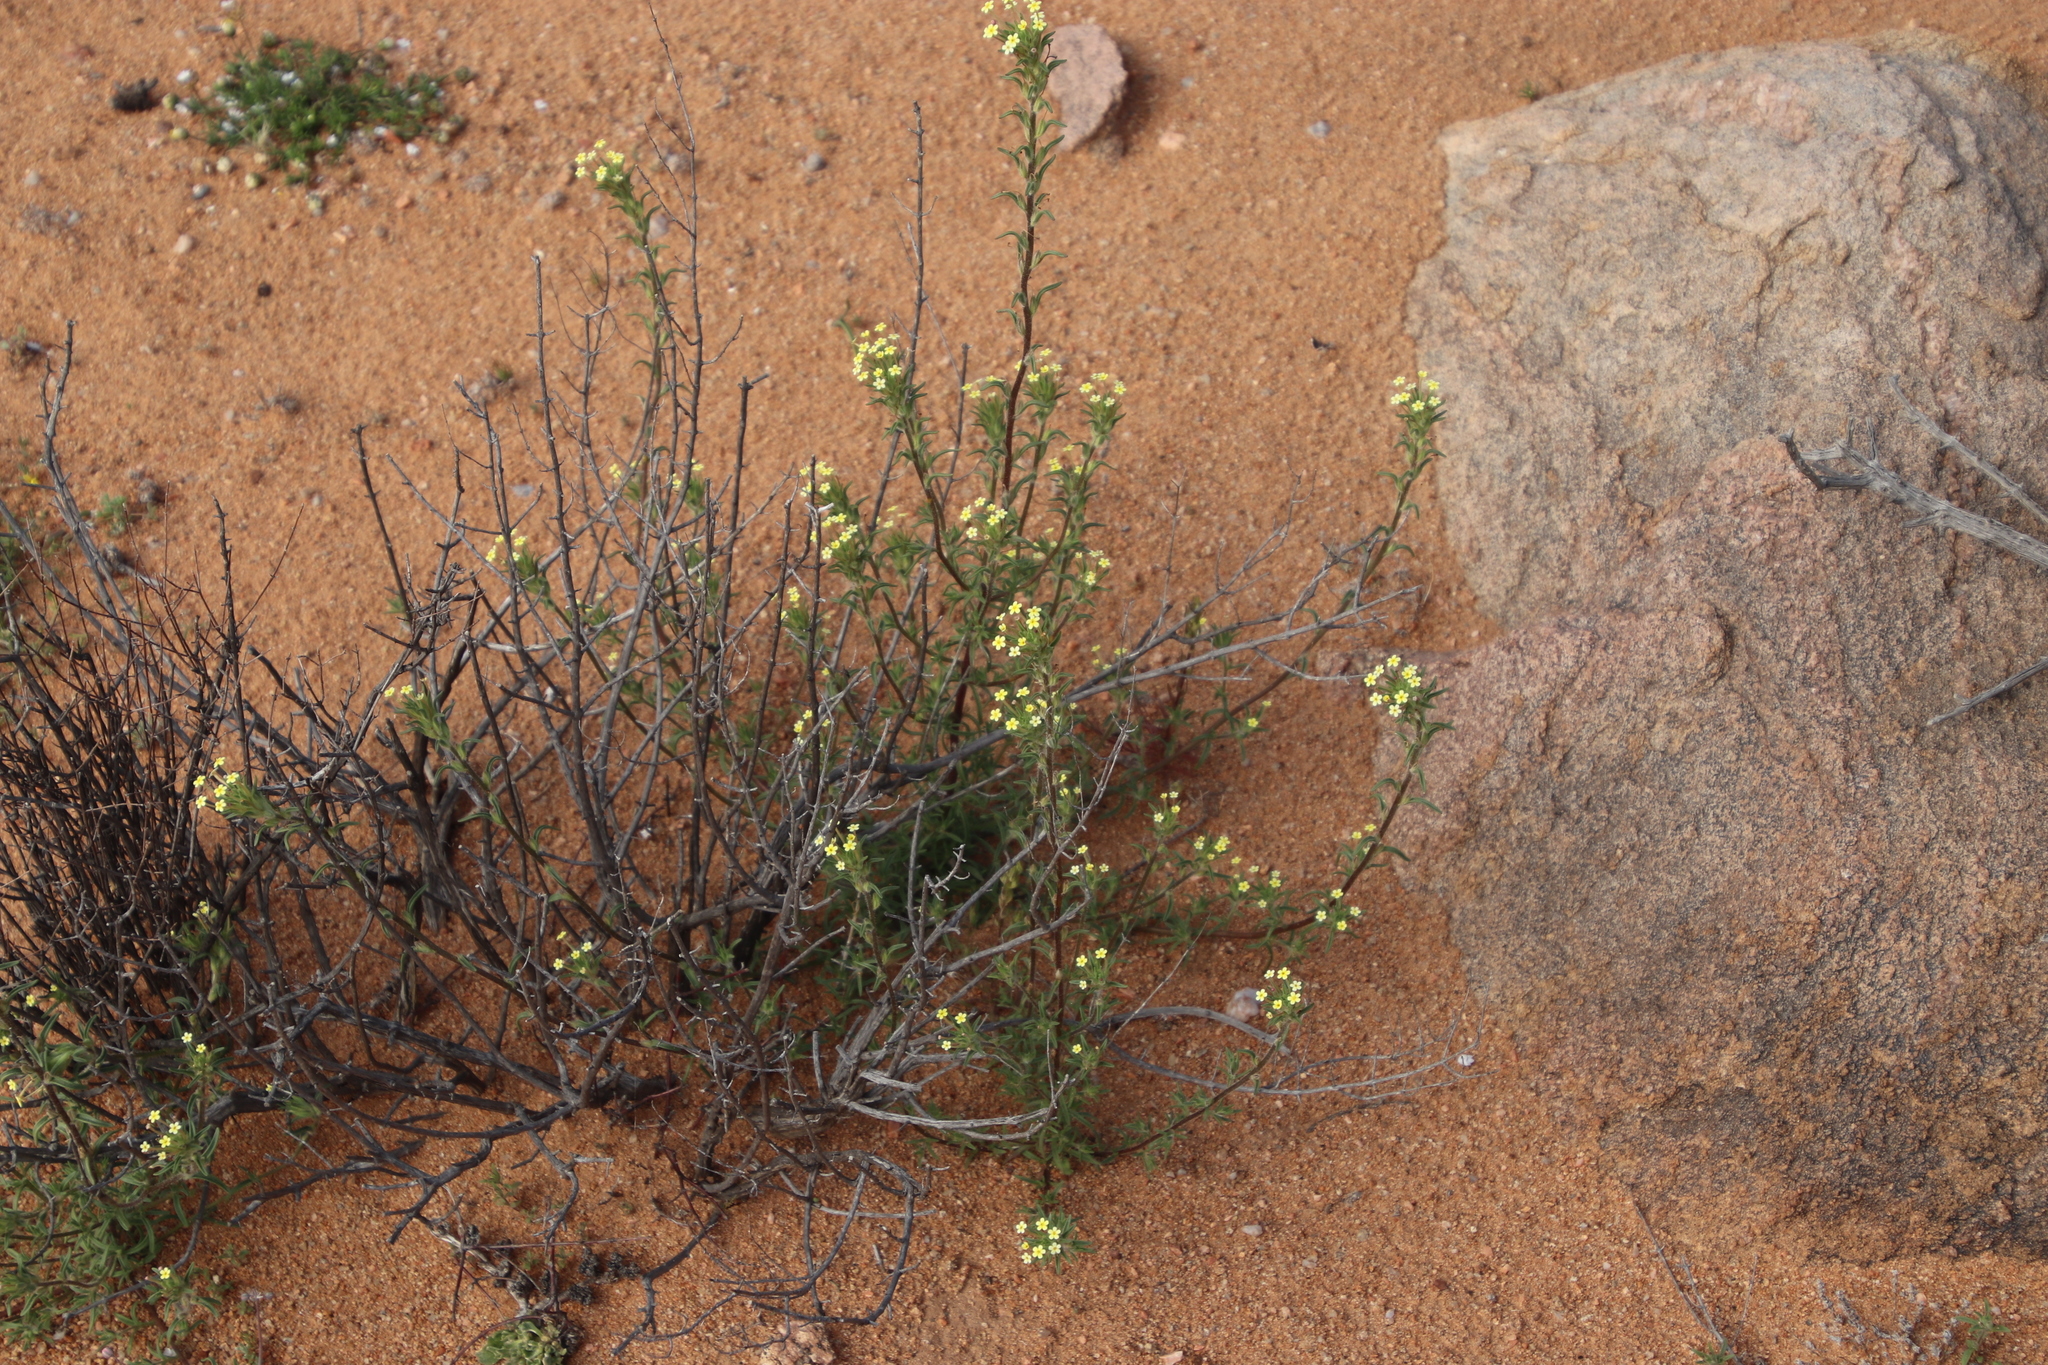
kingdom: Plantae
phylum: Tracheophyta
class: Magnoliopsida
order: Lamiales
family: Scrophulariaceae
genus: Zaluzianskya
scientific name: Zaluzianskya benthamiana
